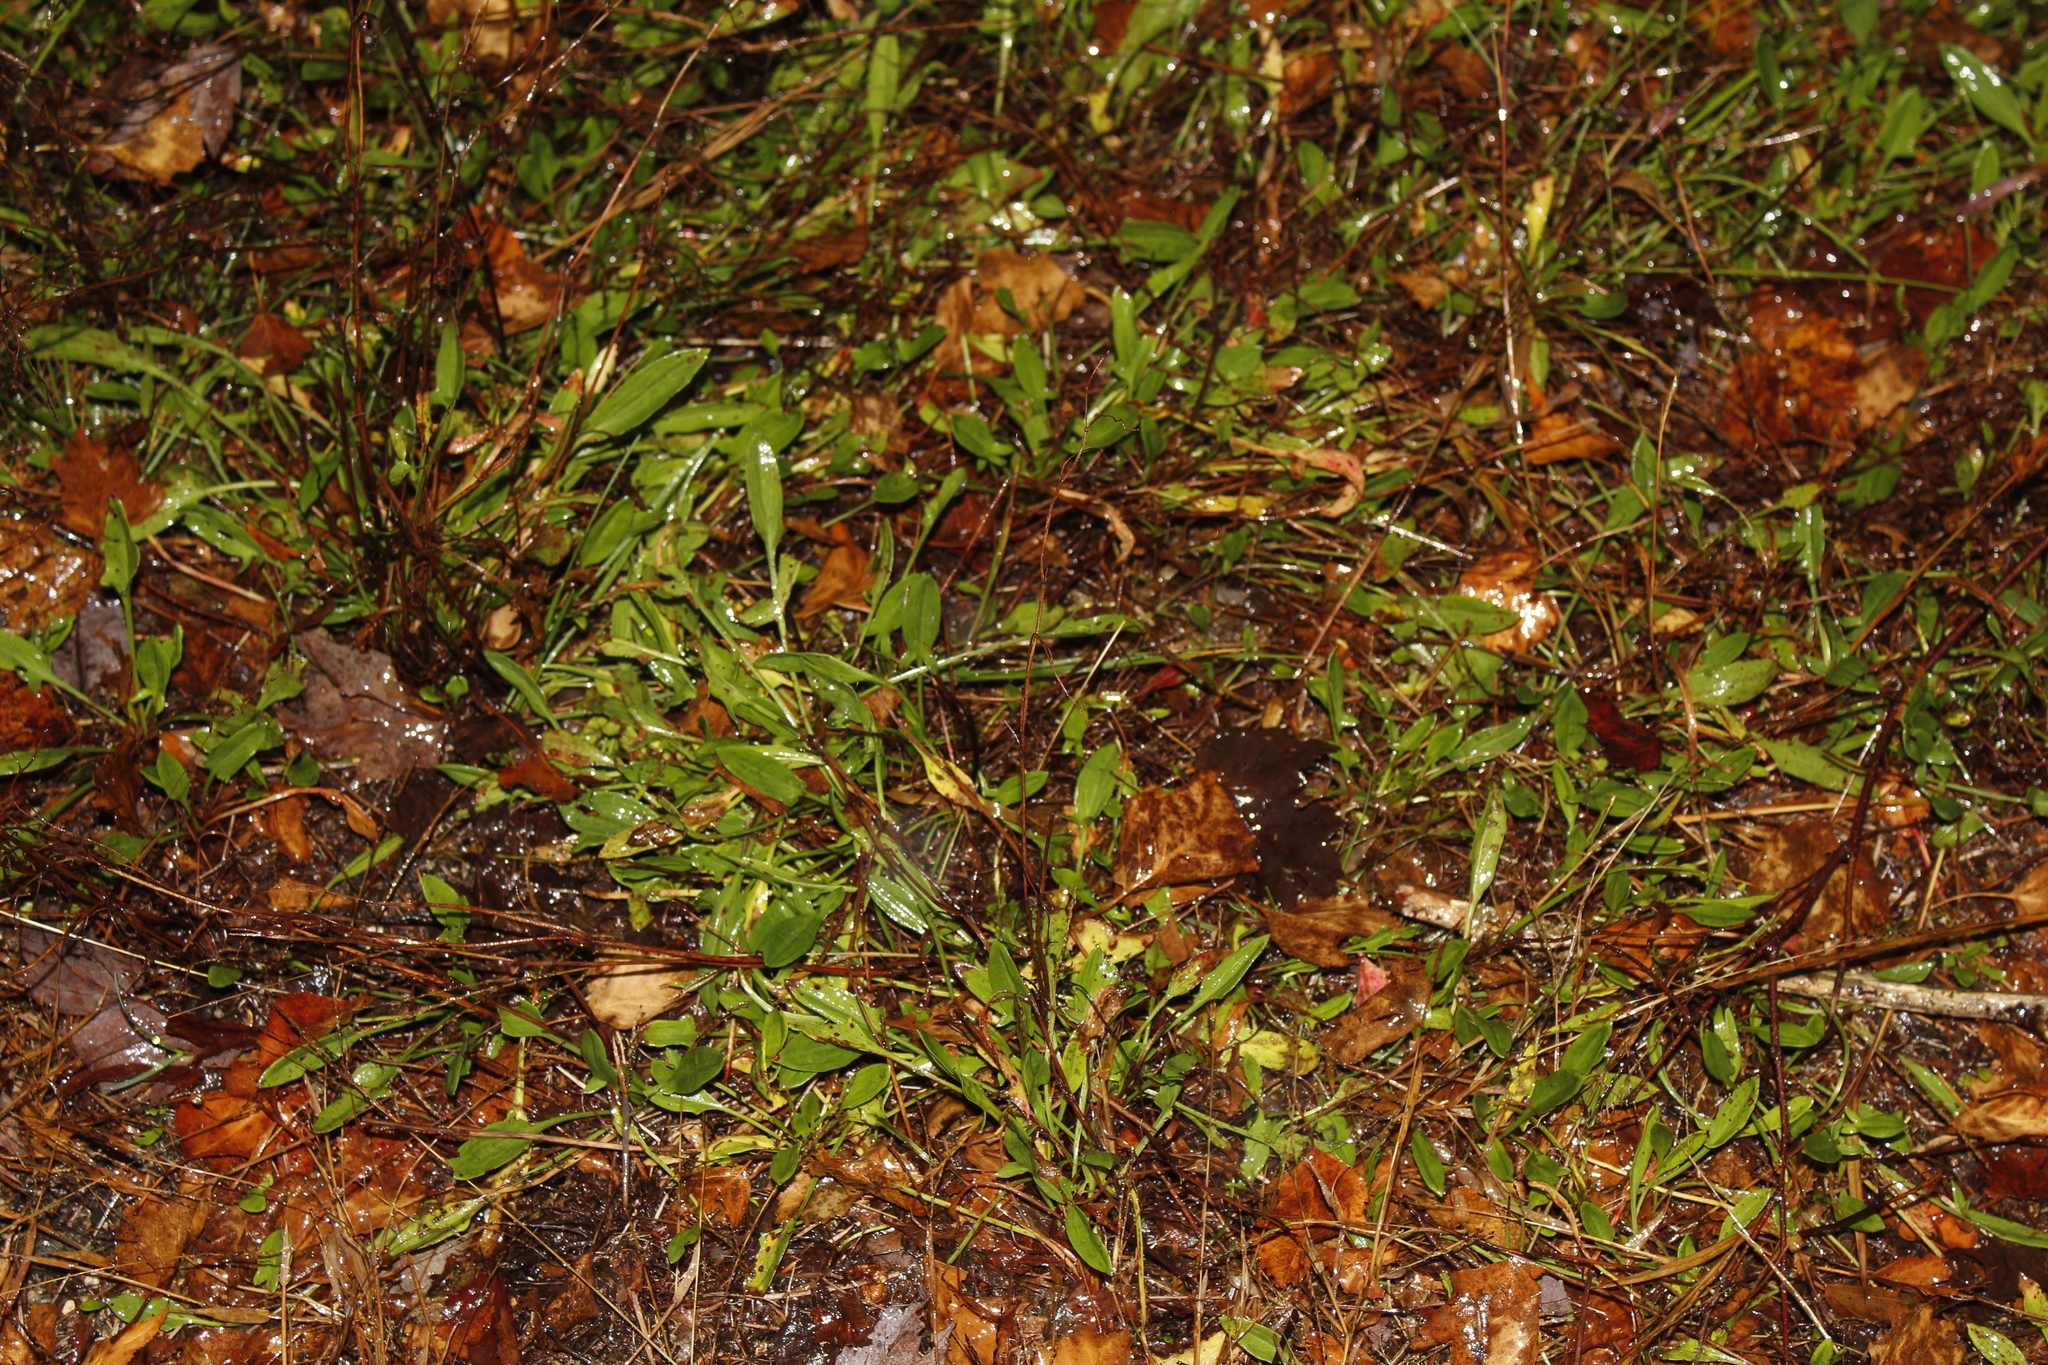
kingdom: Plantae
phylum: Tracheophyta
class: Magnoliopsida
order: Caryophyllales
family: Polygonaceae
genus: Rumex
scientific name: Rumex acetosella
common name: Common sheep sorrel
